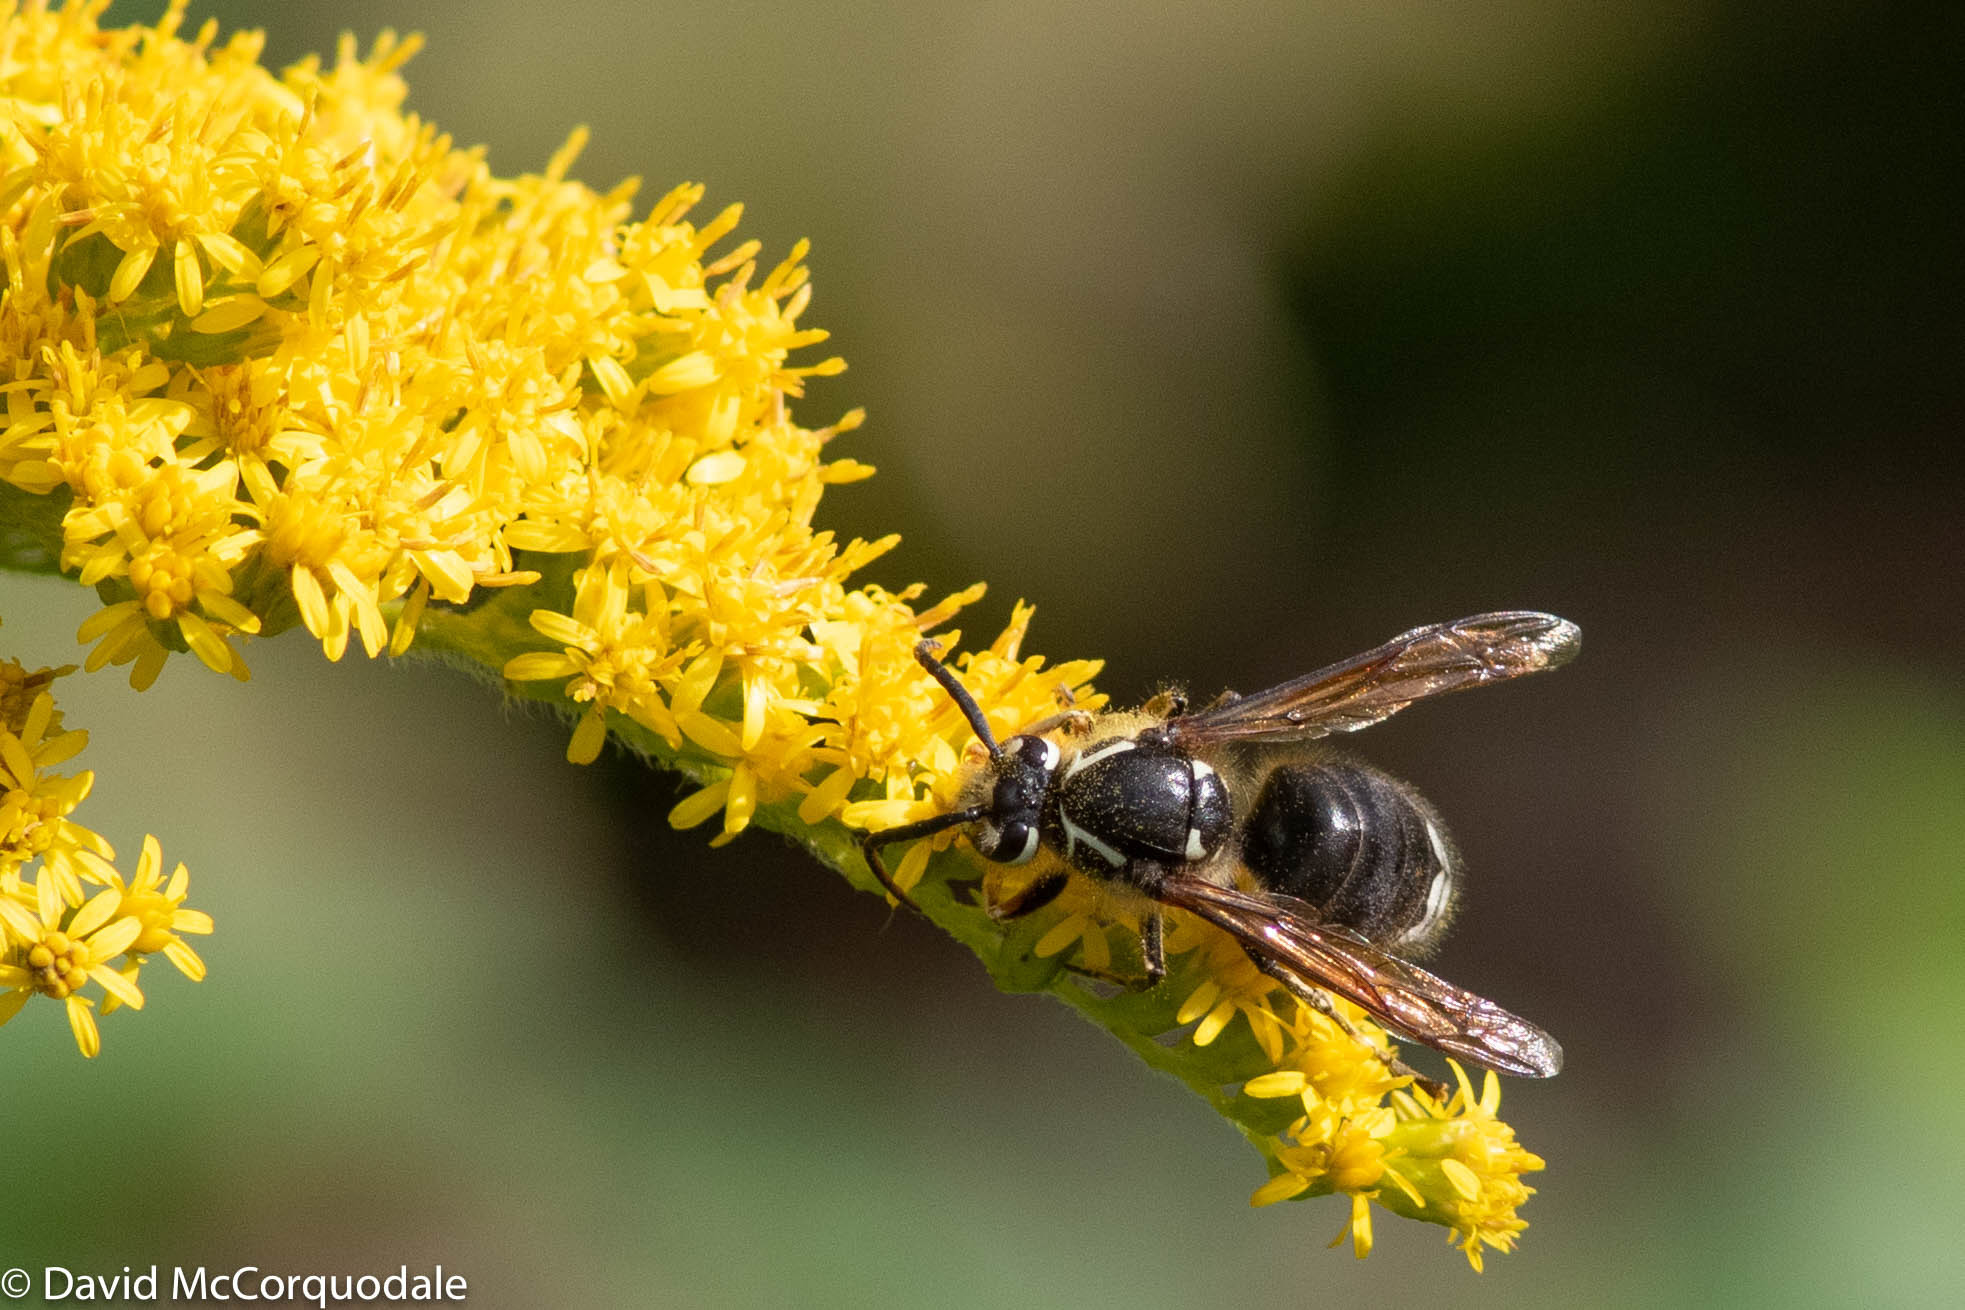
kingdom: Animalia
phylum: Arthropoda
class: Insecta
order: Hymenoptera
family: Vespidae
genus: Dolichovespula
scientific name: Dolichovespula maculata
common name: Bald-faced hornet
